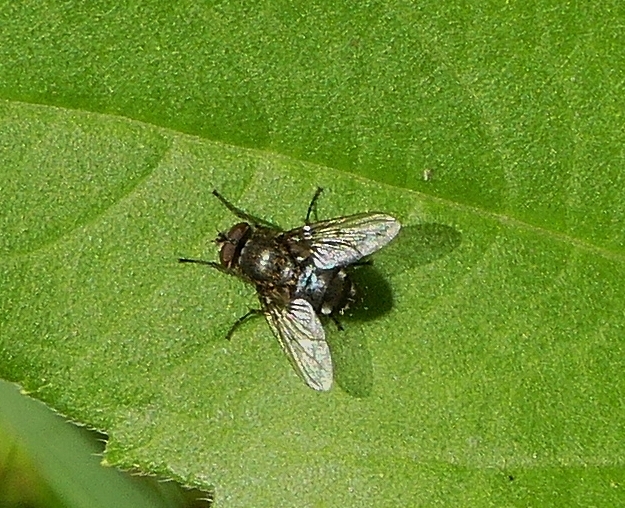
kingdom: Animalia
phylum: Arthropoda
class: Insecta
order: Diptera
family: Polleniidae
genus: Pollenia
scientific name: Pollenia
